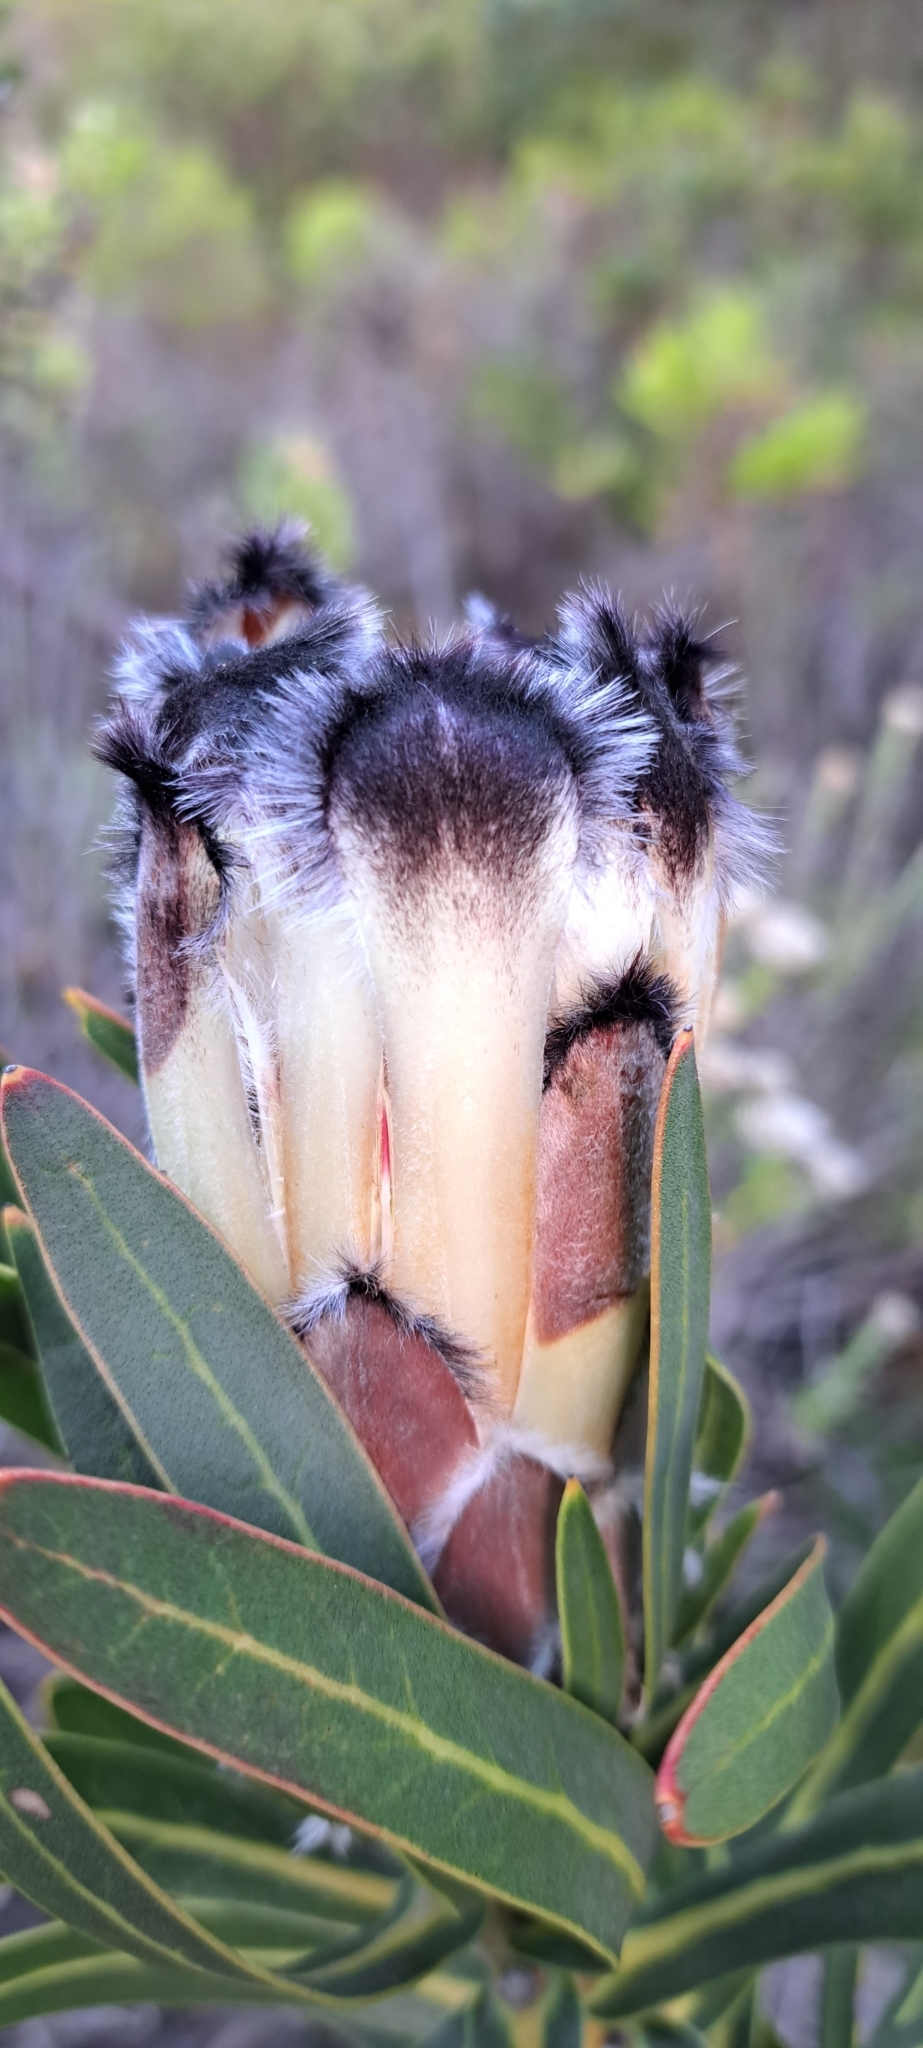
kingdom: Plantae
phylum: Tracheophyta
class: Magnoliopsida
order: Proteales
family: Proteaceae
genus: Protea
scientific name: Protea lepidocarpodendron
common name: Black-bearded protea
